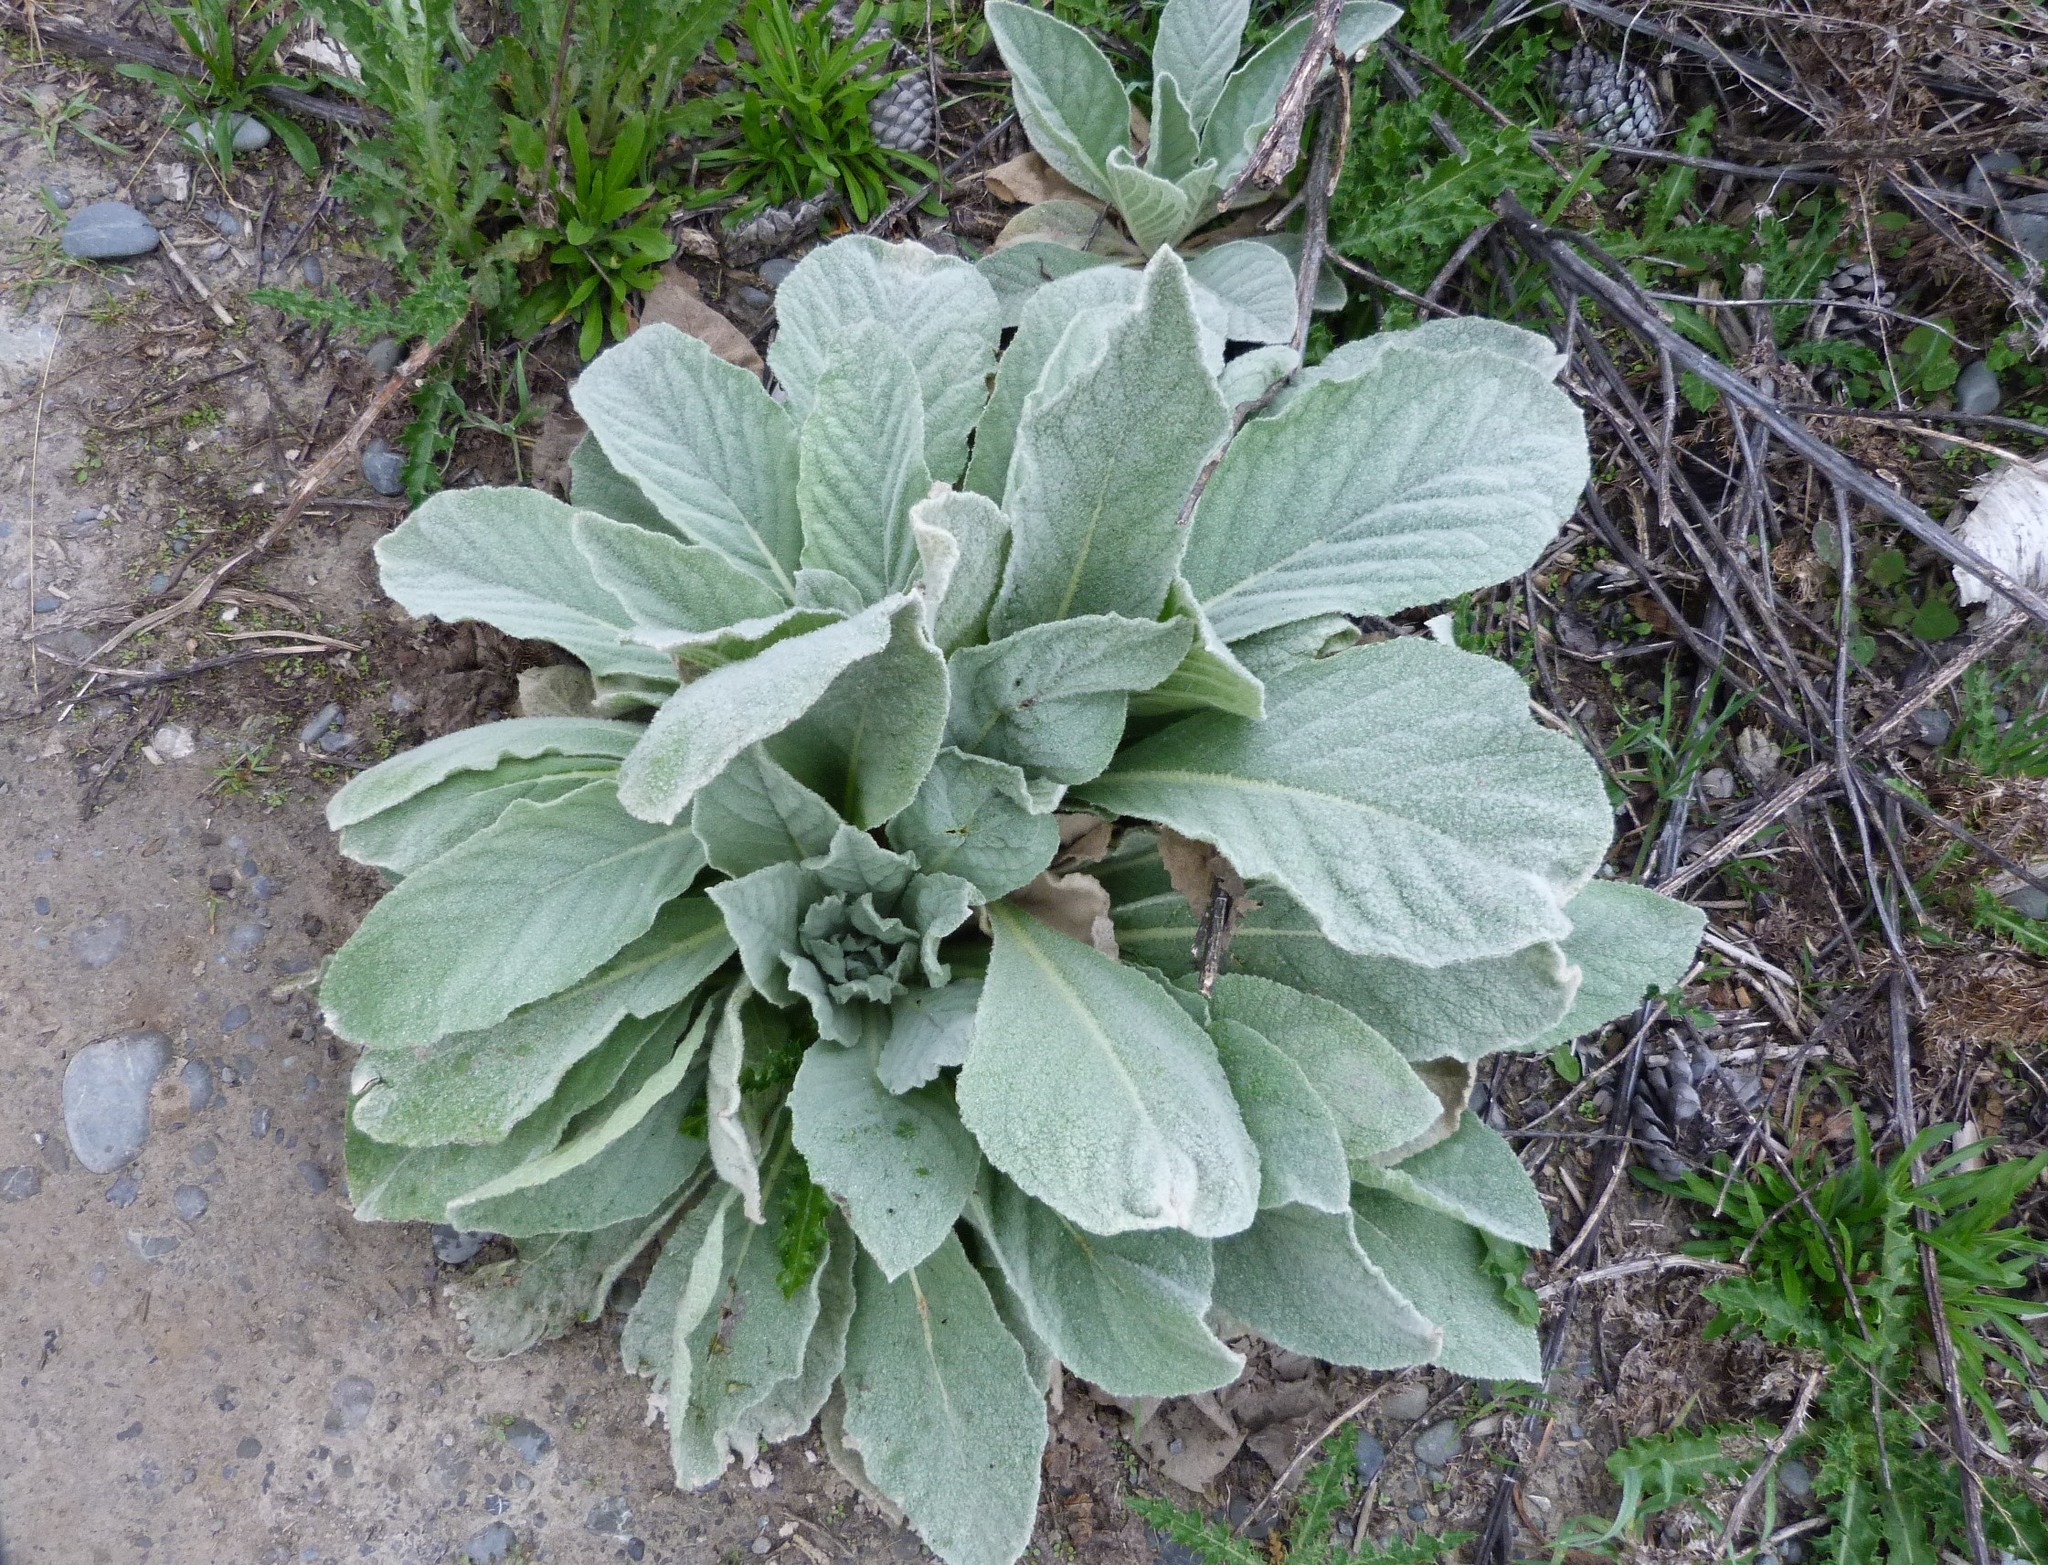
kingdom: Plantae
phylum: Tracheophyta
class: Magnoliopsida
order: Lamiales
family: Scrophulariaceae
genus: Verbascum
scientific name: Verbascum thapsus
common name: Common mullein
